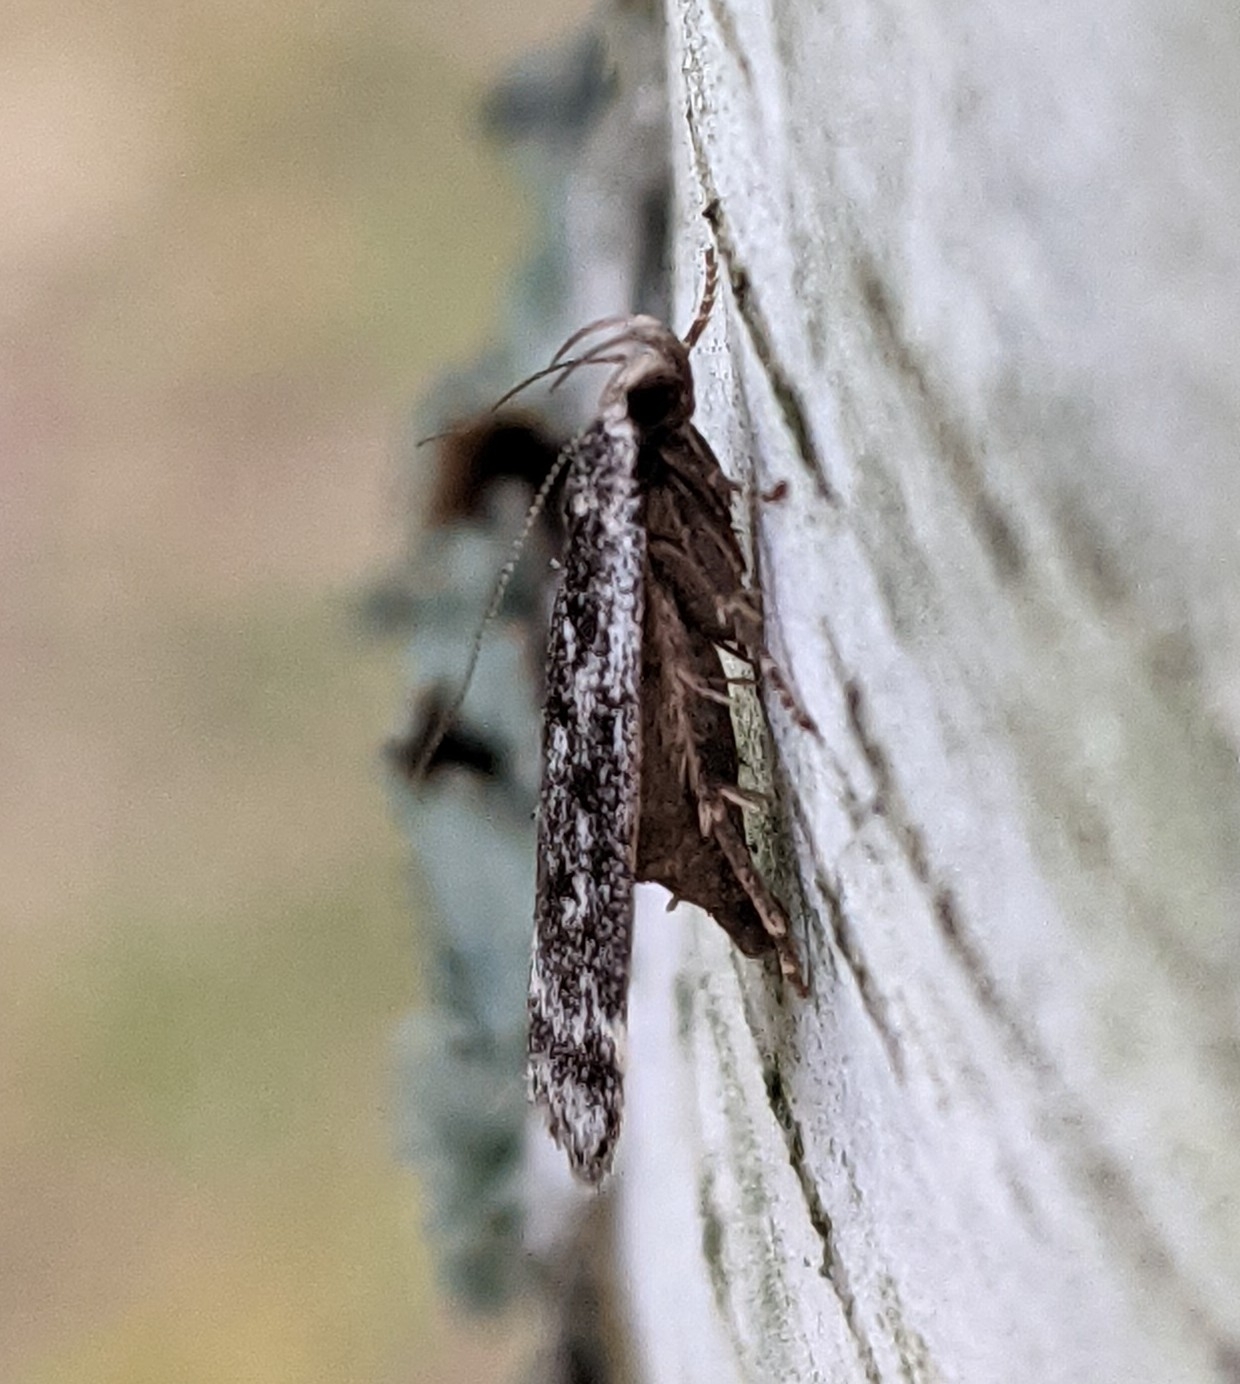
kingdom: Animalia
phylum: Arthropoda
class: Insecta
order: Lepidoptera
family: Gelechiidae
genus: Anacampsis
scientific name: Anacampsis populella
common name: Poplar leafroller
